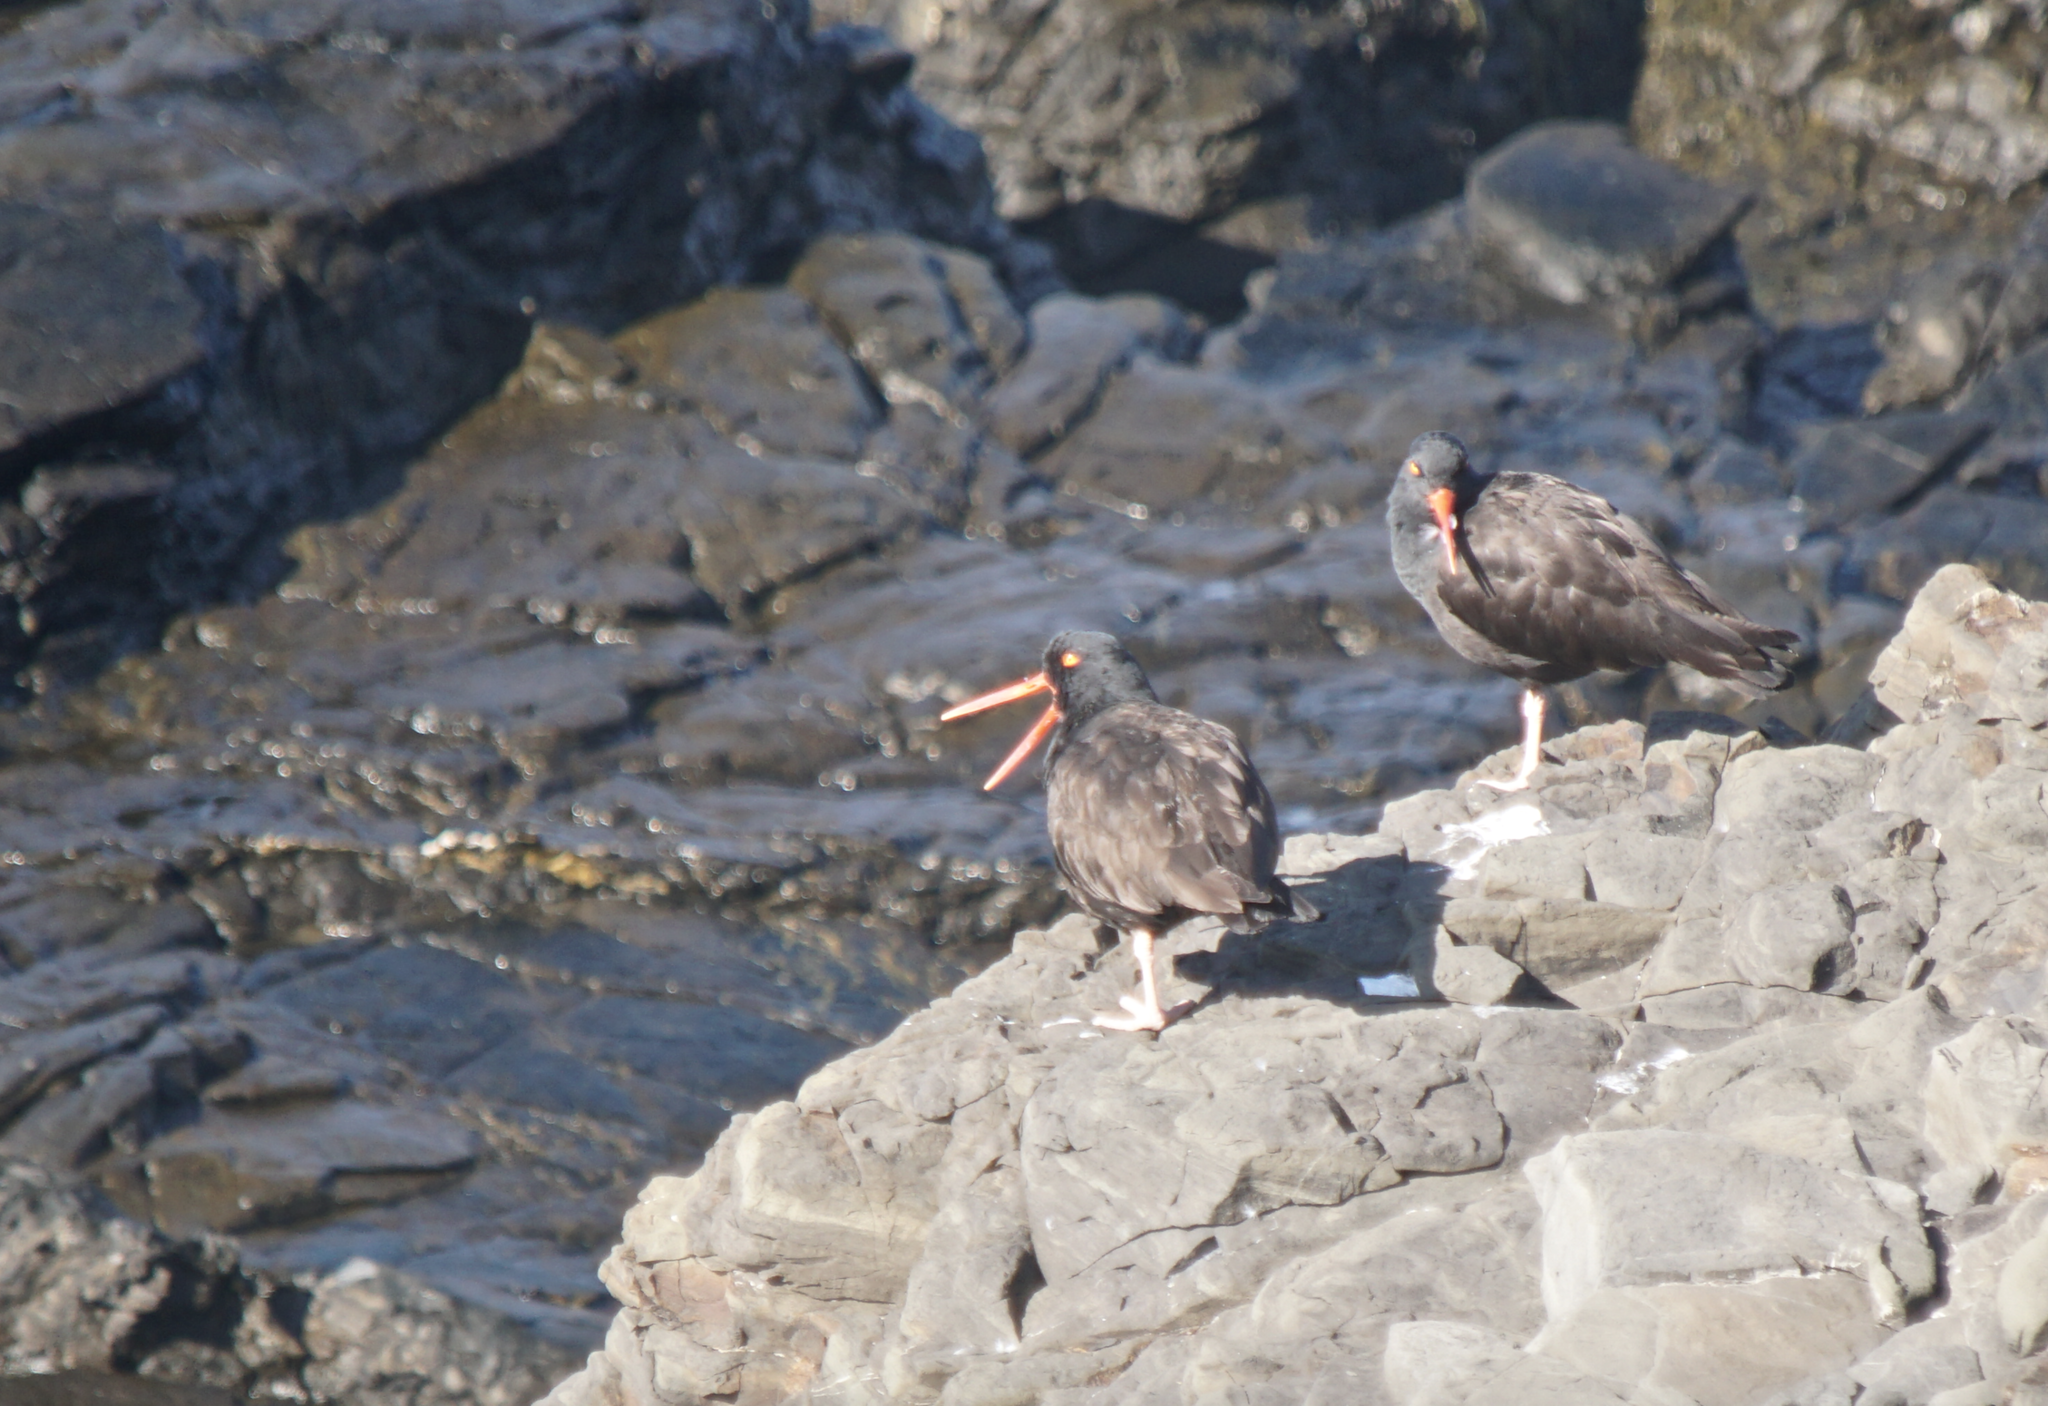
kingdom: Animalia
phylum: Chordata
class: Aves
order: Charadriiformes
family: Haematopodidae
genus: Haematopus
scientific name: Haematopus bachmani
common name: Black oystercatcher
